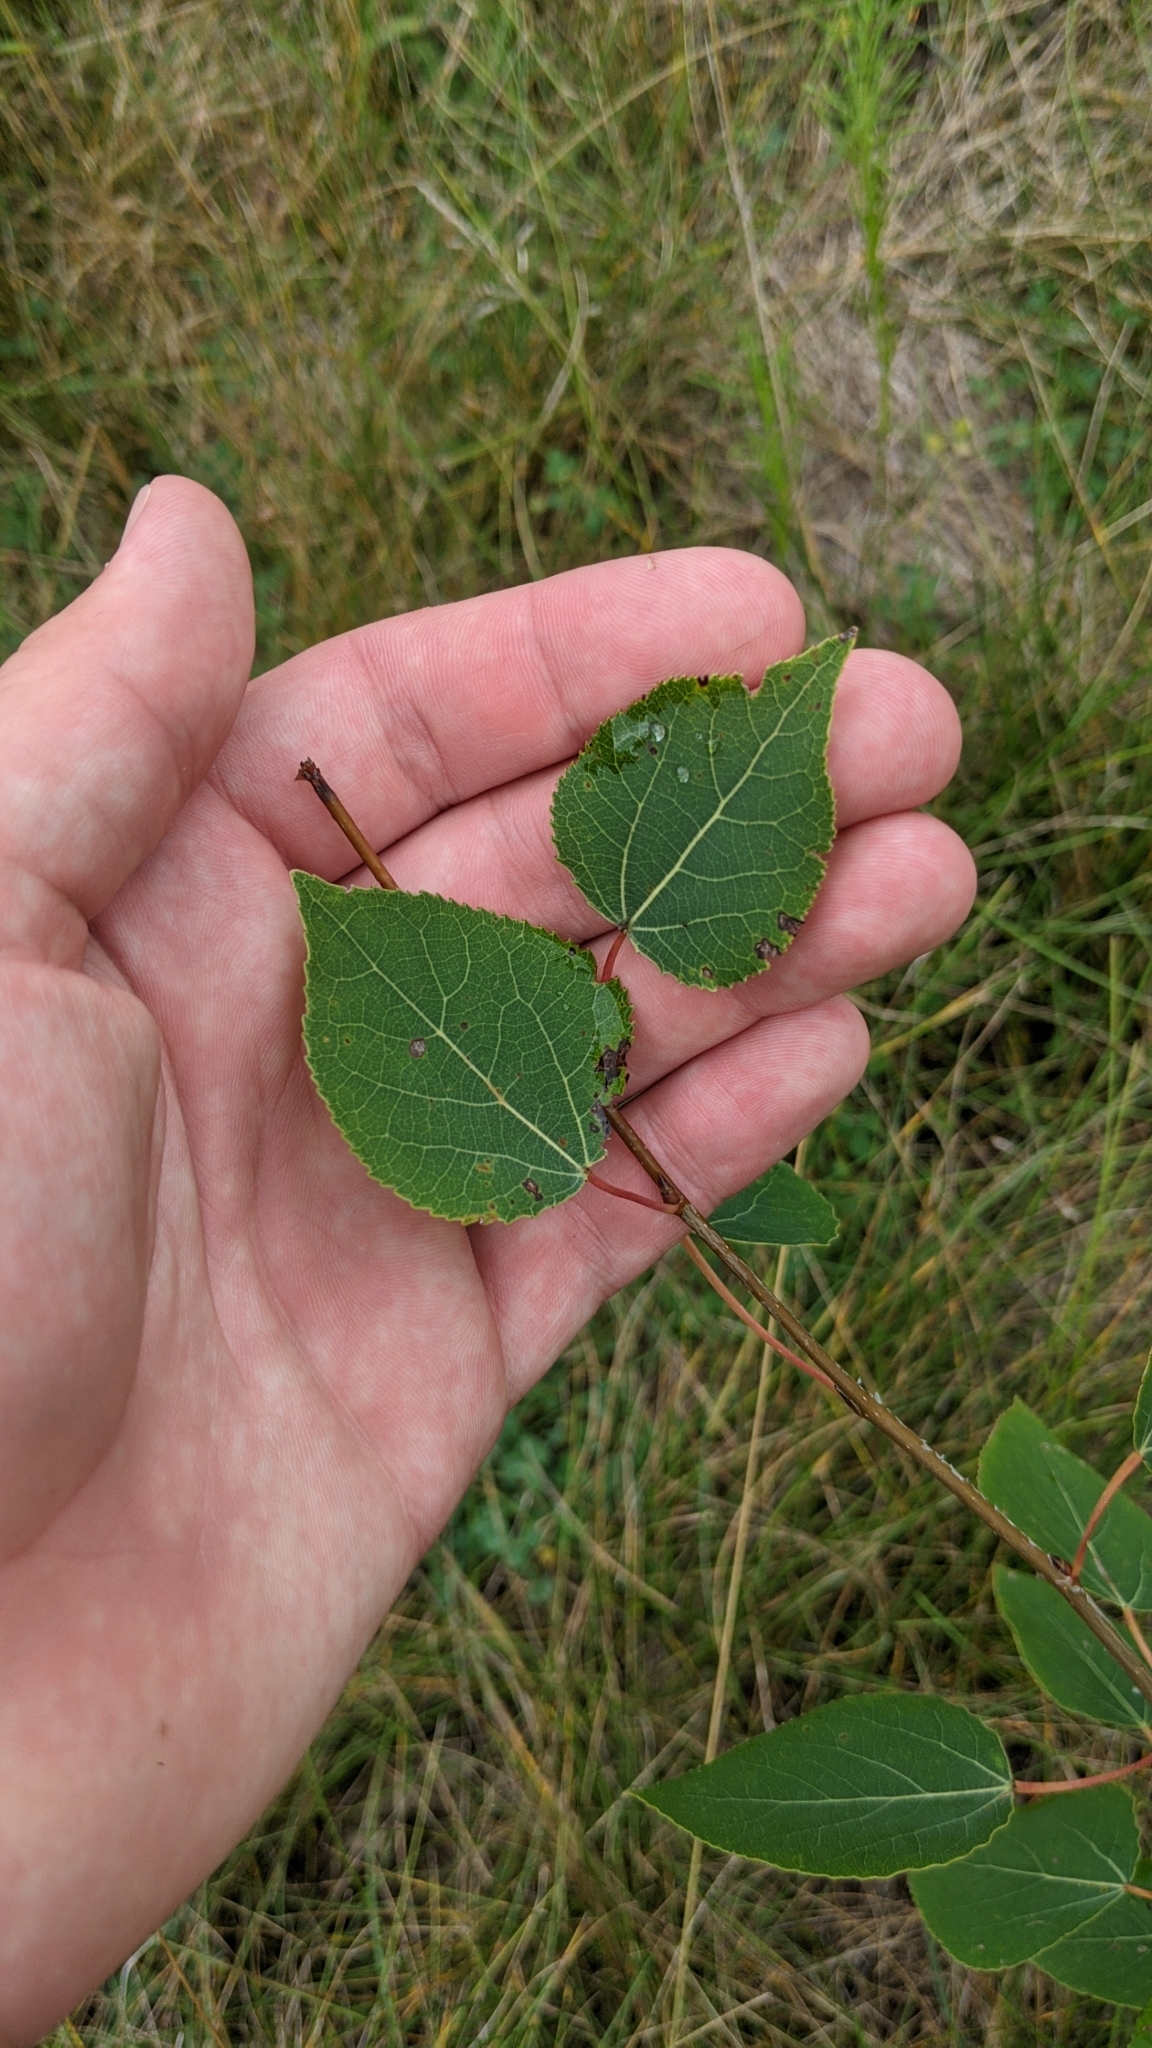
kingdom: Plantae
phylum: Tracheophyta
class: Magnoliopsida
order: Malpighiales
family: Salicaceae
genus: Populus
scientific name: Populus tremuloides
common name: Quaking aspen
